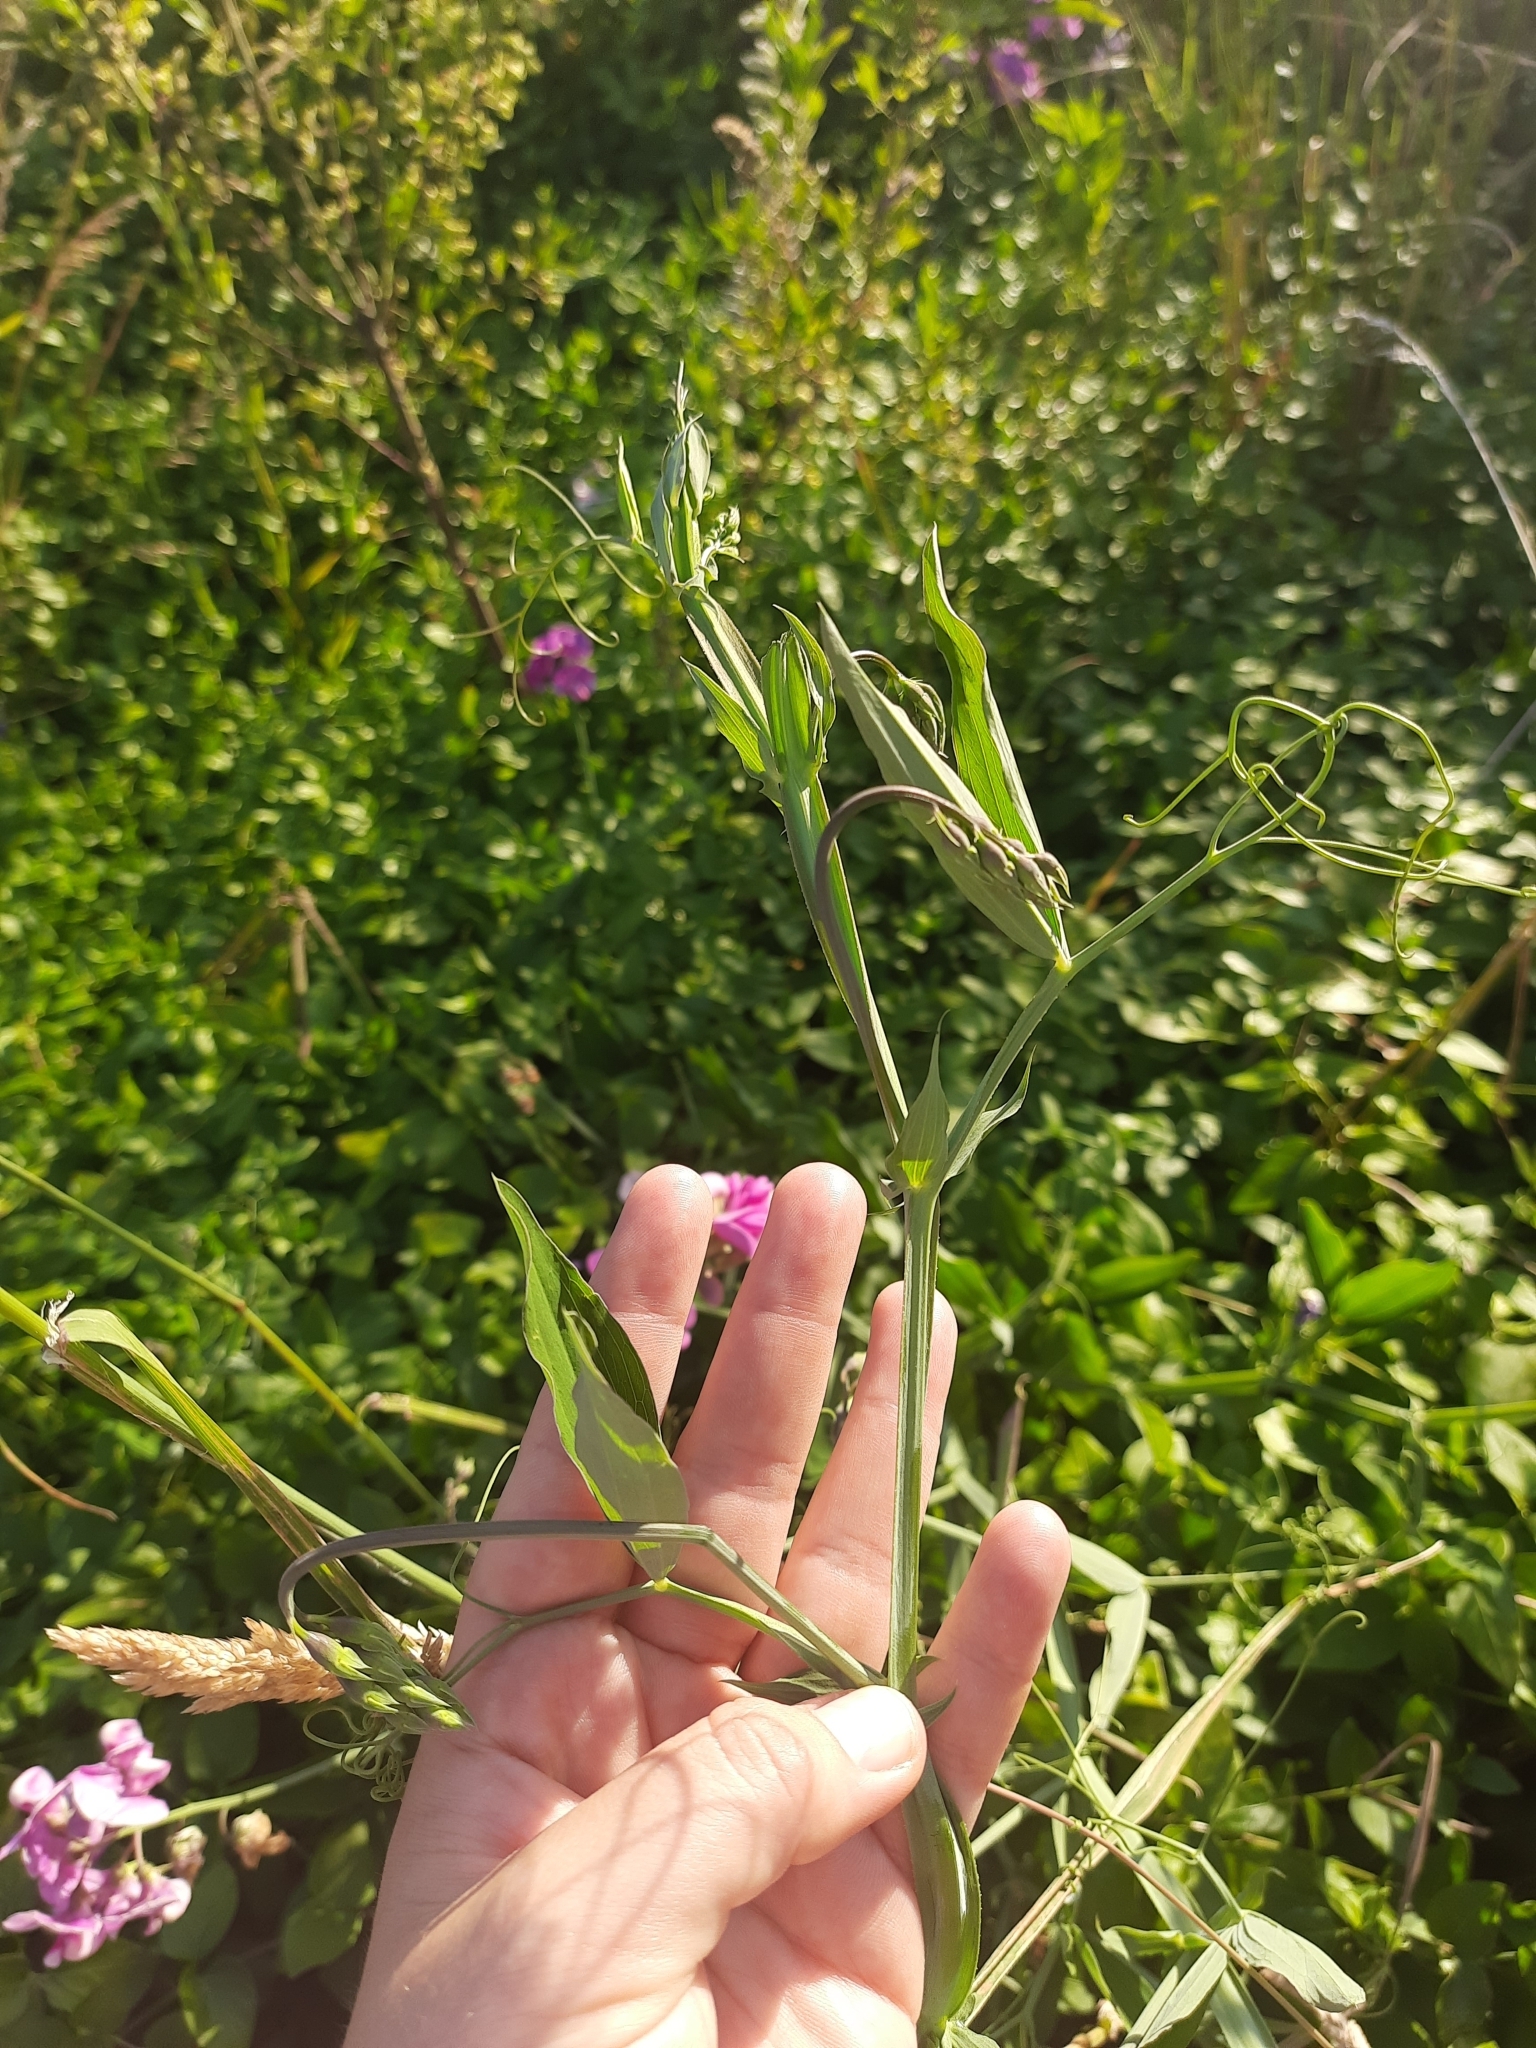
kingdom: Plantae
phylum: Tracheophyta
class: Magnoliopsida
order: Fabales
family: Fabaceae
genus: Lathyrus
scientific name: Lathyrus latifolius
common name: Perennial pea
